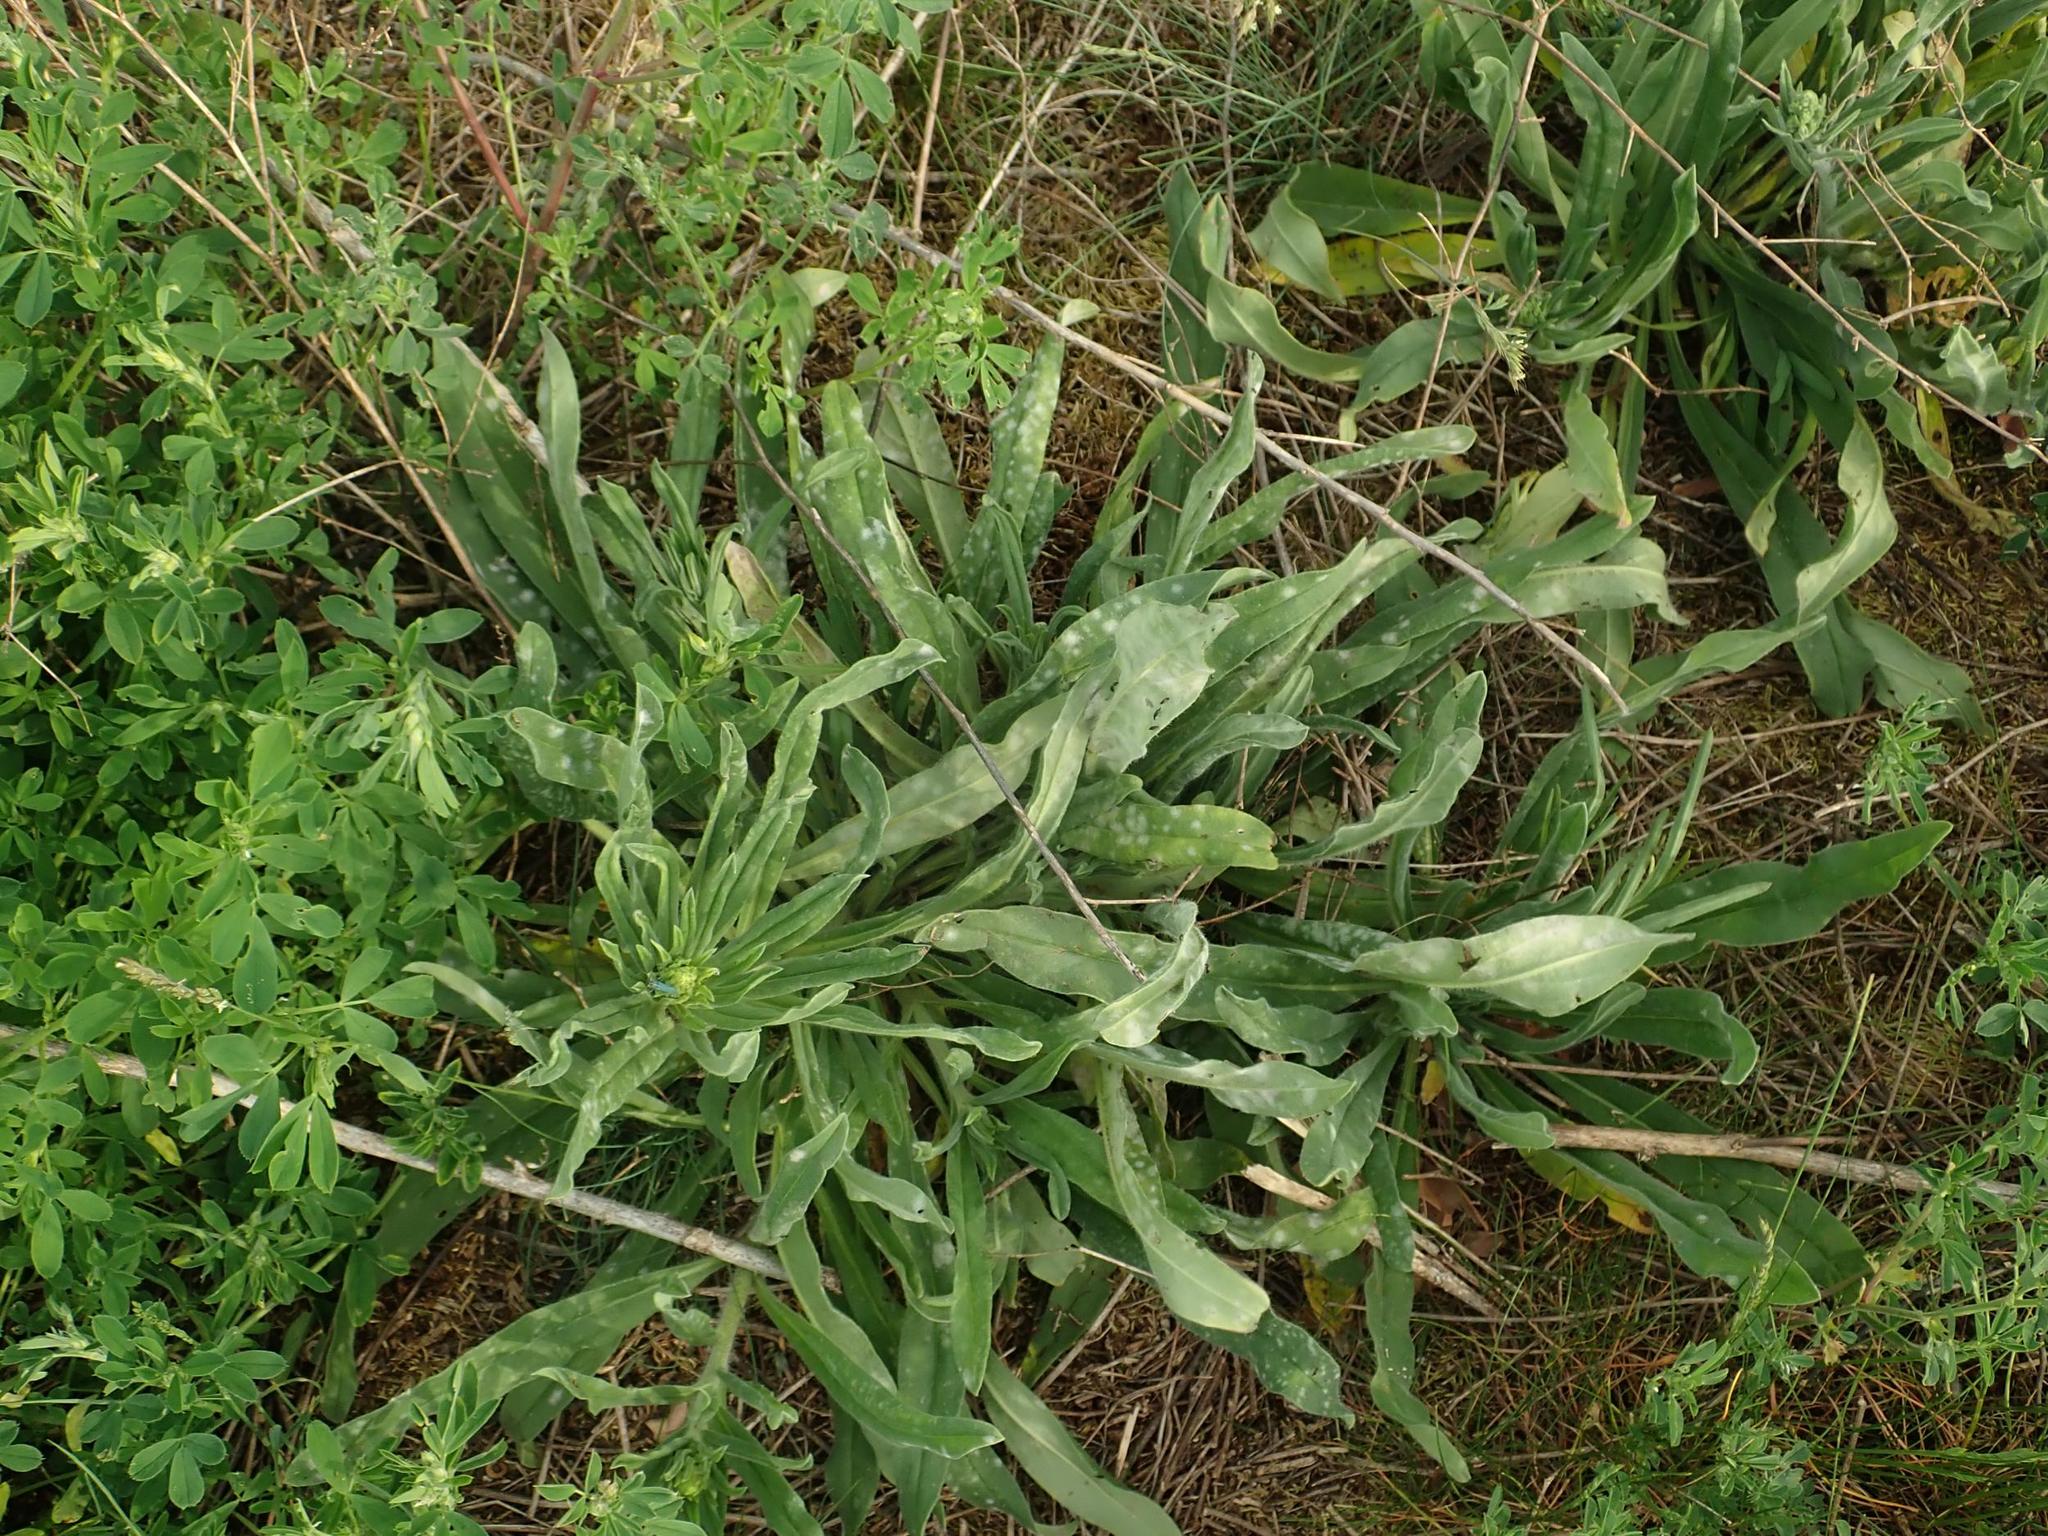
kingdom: Plantae
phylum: Tracheophyta
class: Magnoliopsida
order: Boraginales
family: Boraginaceae
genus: Echium
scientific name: Echium vulgare
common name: Common viper's bugloss
